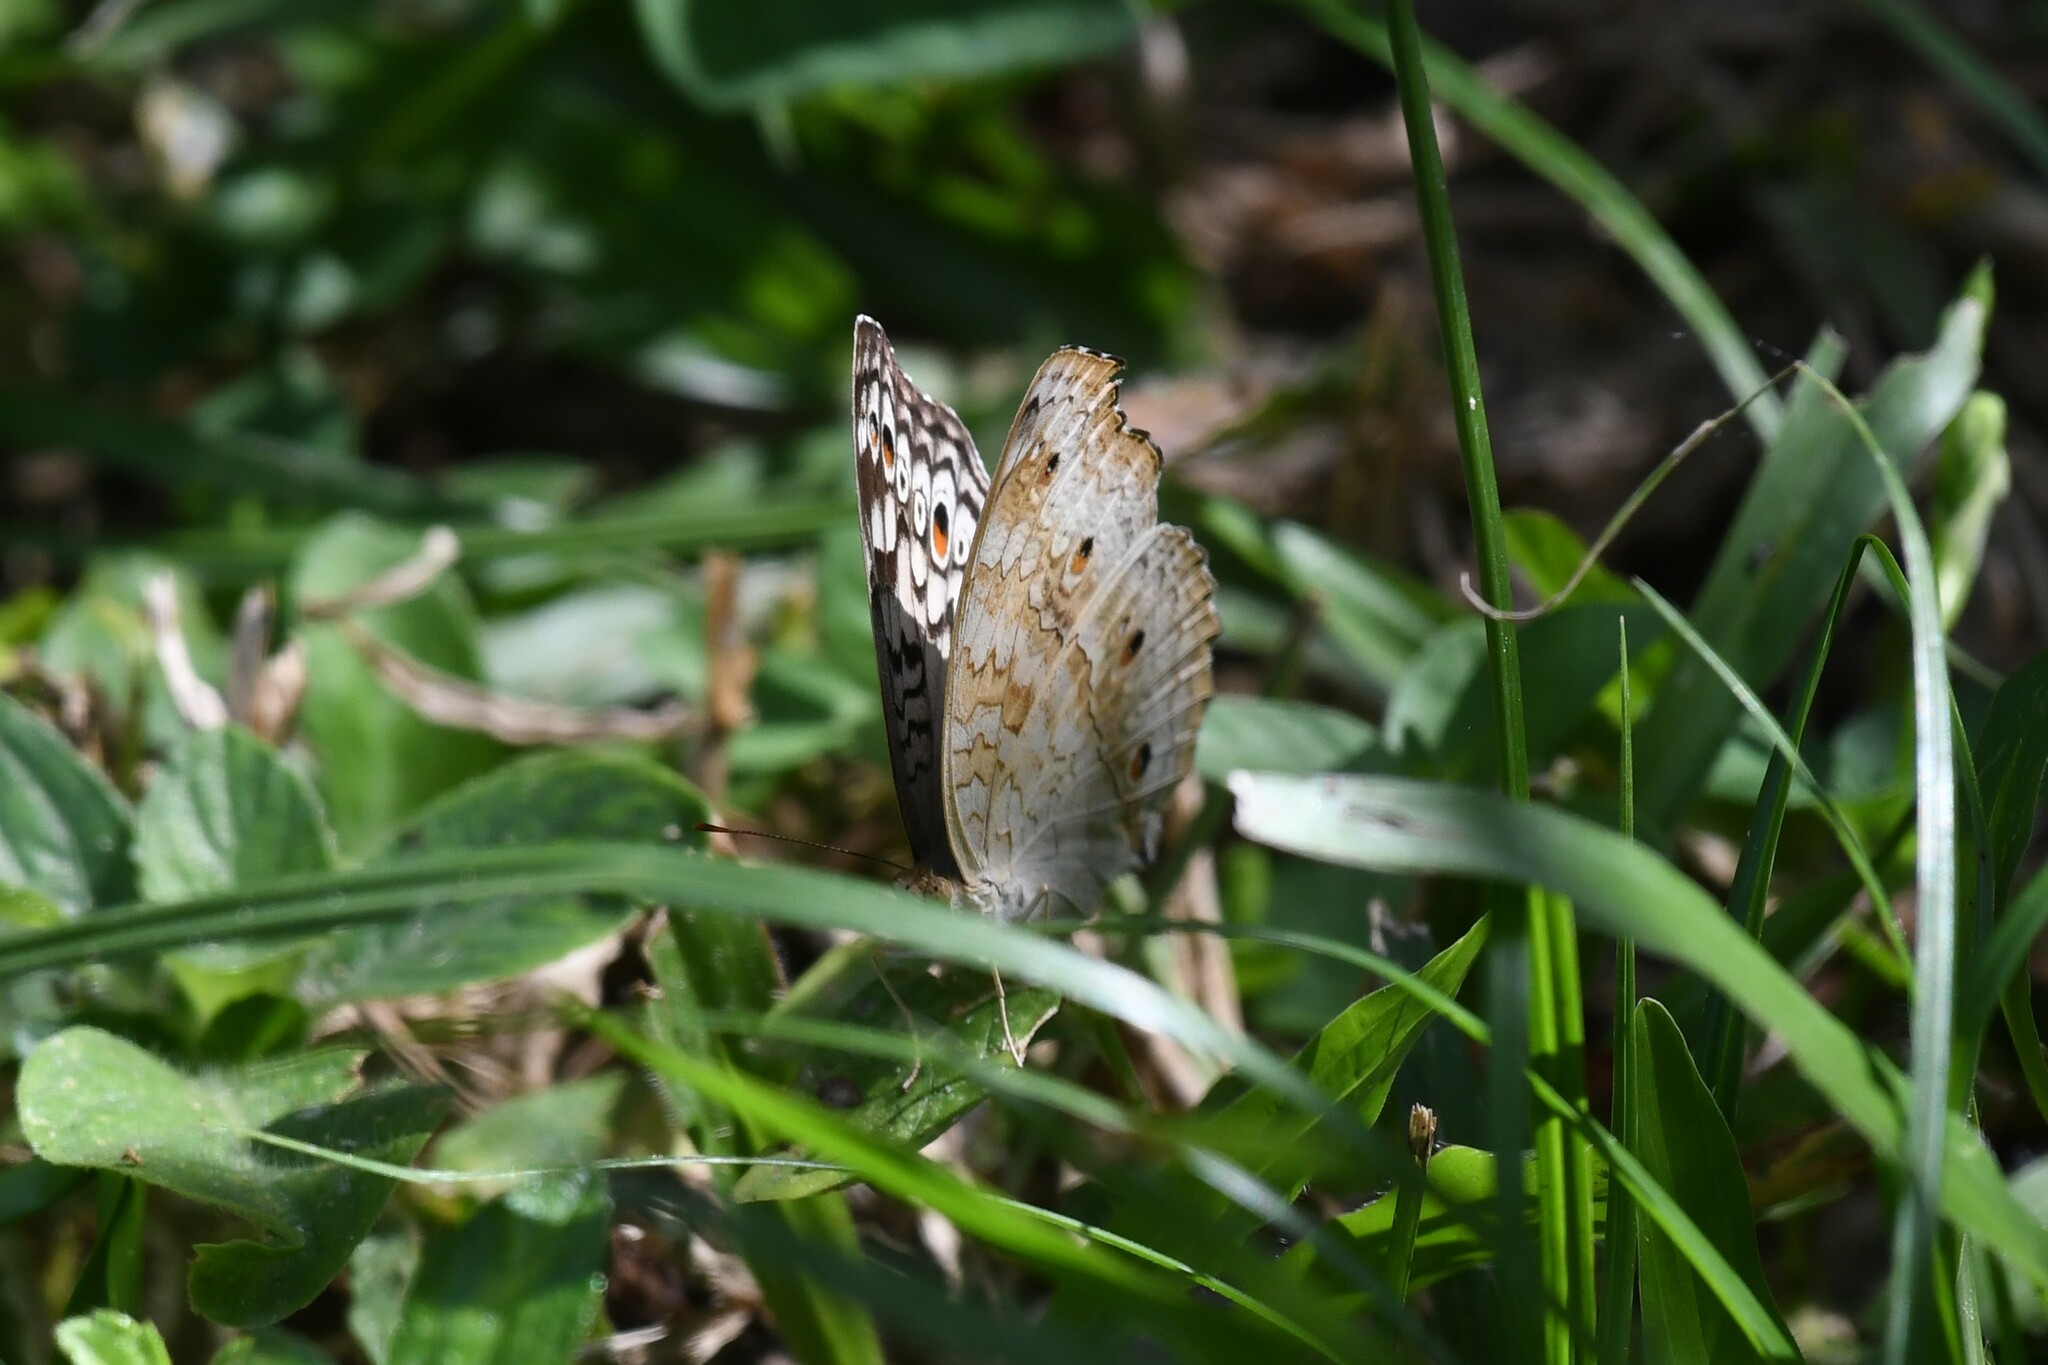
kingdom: Animalia
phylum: Arthropoda
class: Insecta
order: Lepidoptera
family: Nymphalidae
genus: Junonia
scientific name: Junonia atlites
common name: Grey pansy
